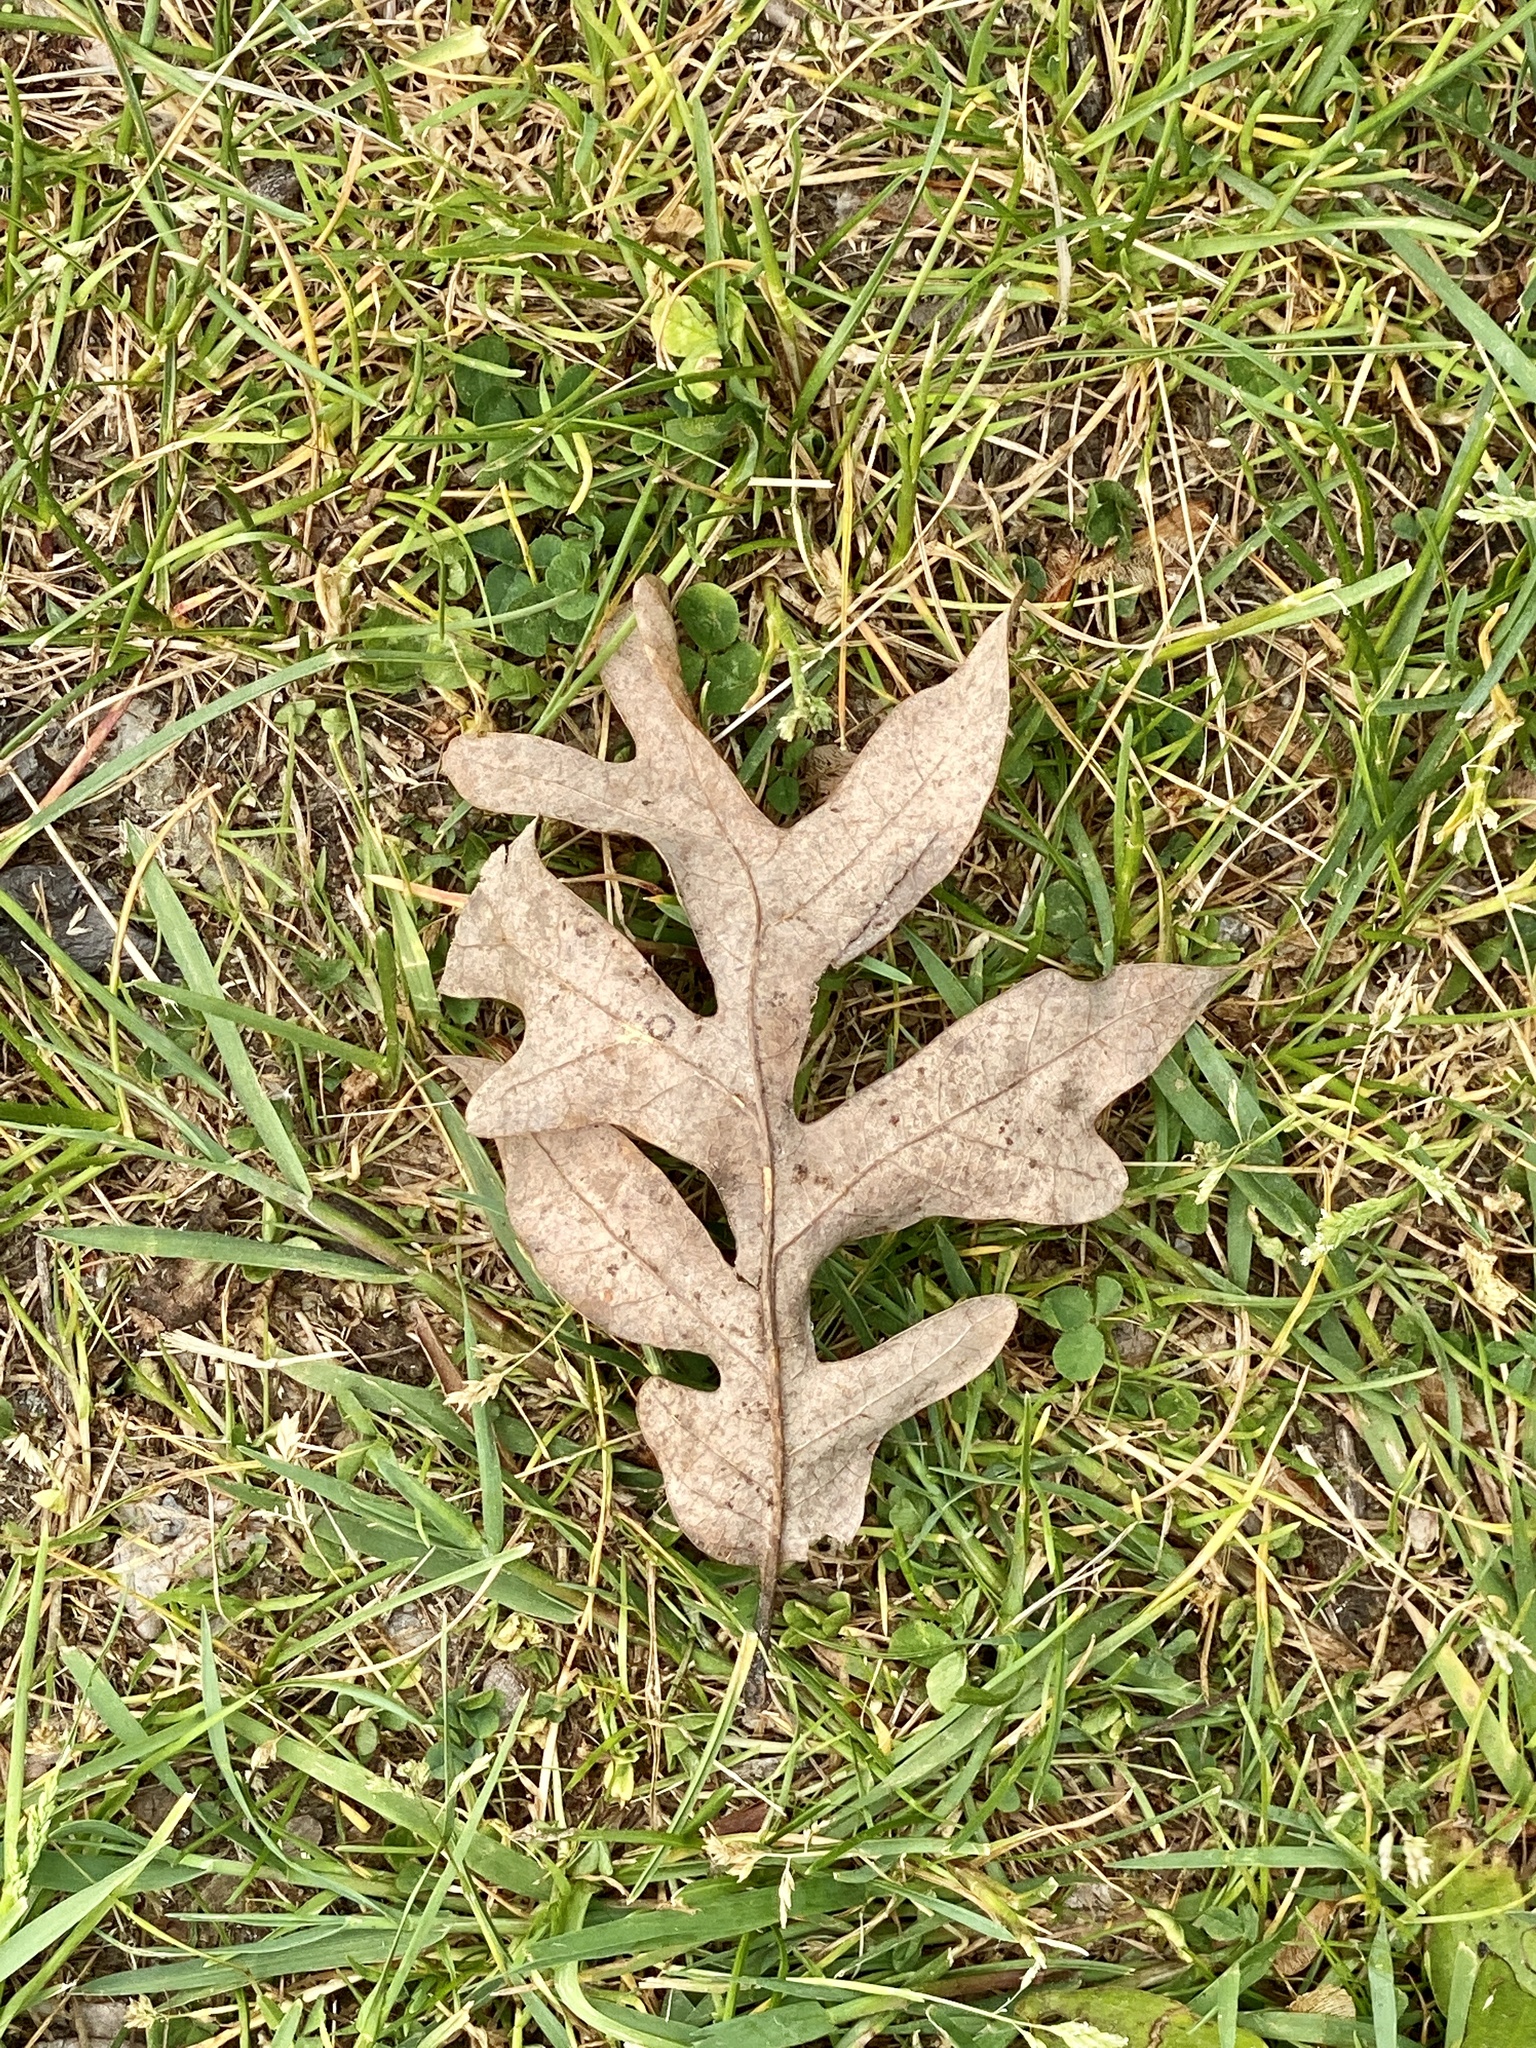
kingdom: Plantae
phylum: Tracheophyta
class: Magnoliopsida
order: Fagales
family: Fagaceae
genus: Quercus
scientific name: Quercus alba
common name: White oak
